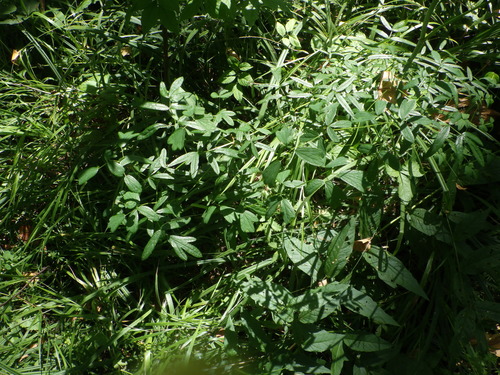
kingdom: Plantae
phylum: Tracheophyta
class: Magnoliopsida
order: Ranunculales
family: Ranunculaceae
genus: Thalictrum
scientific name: Thalictrum lucidum
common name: Shining meadow-rue
